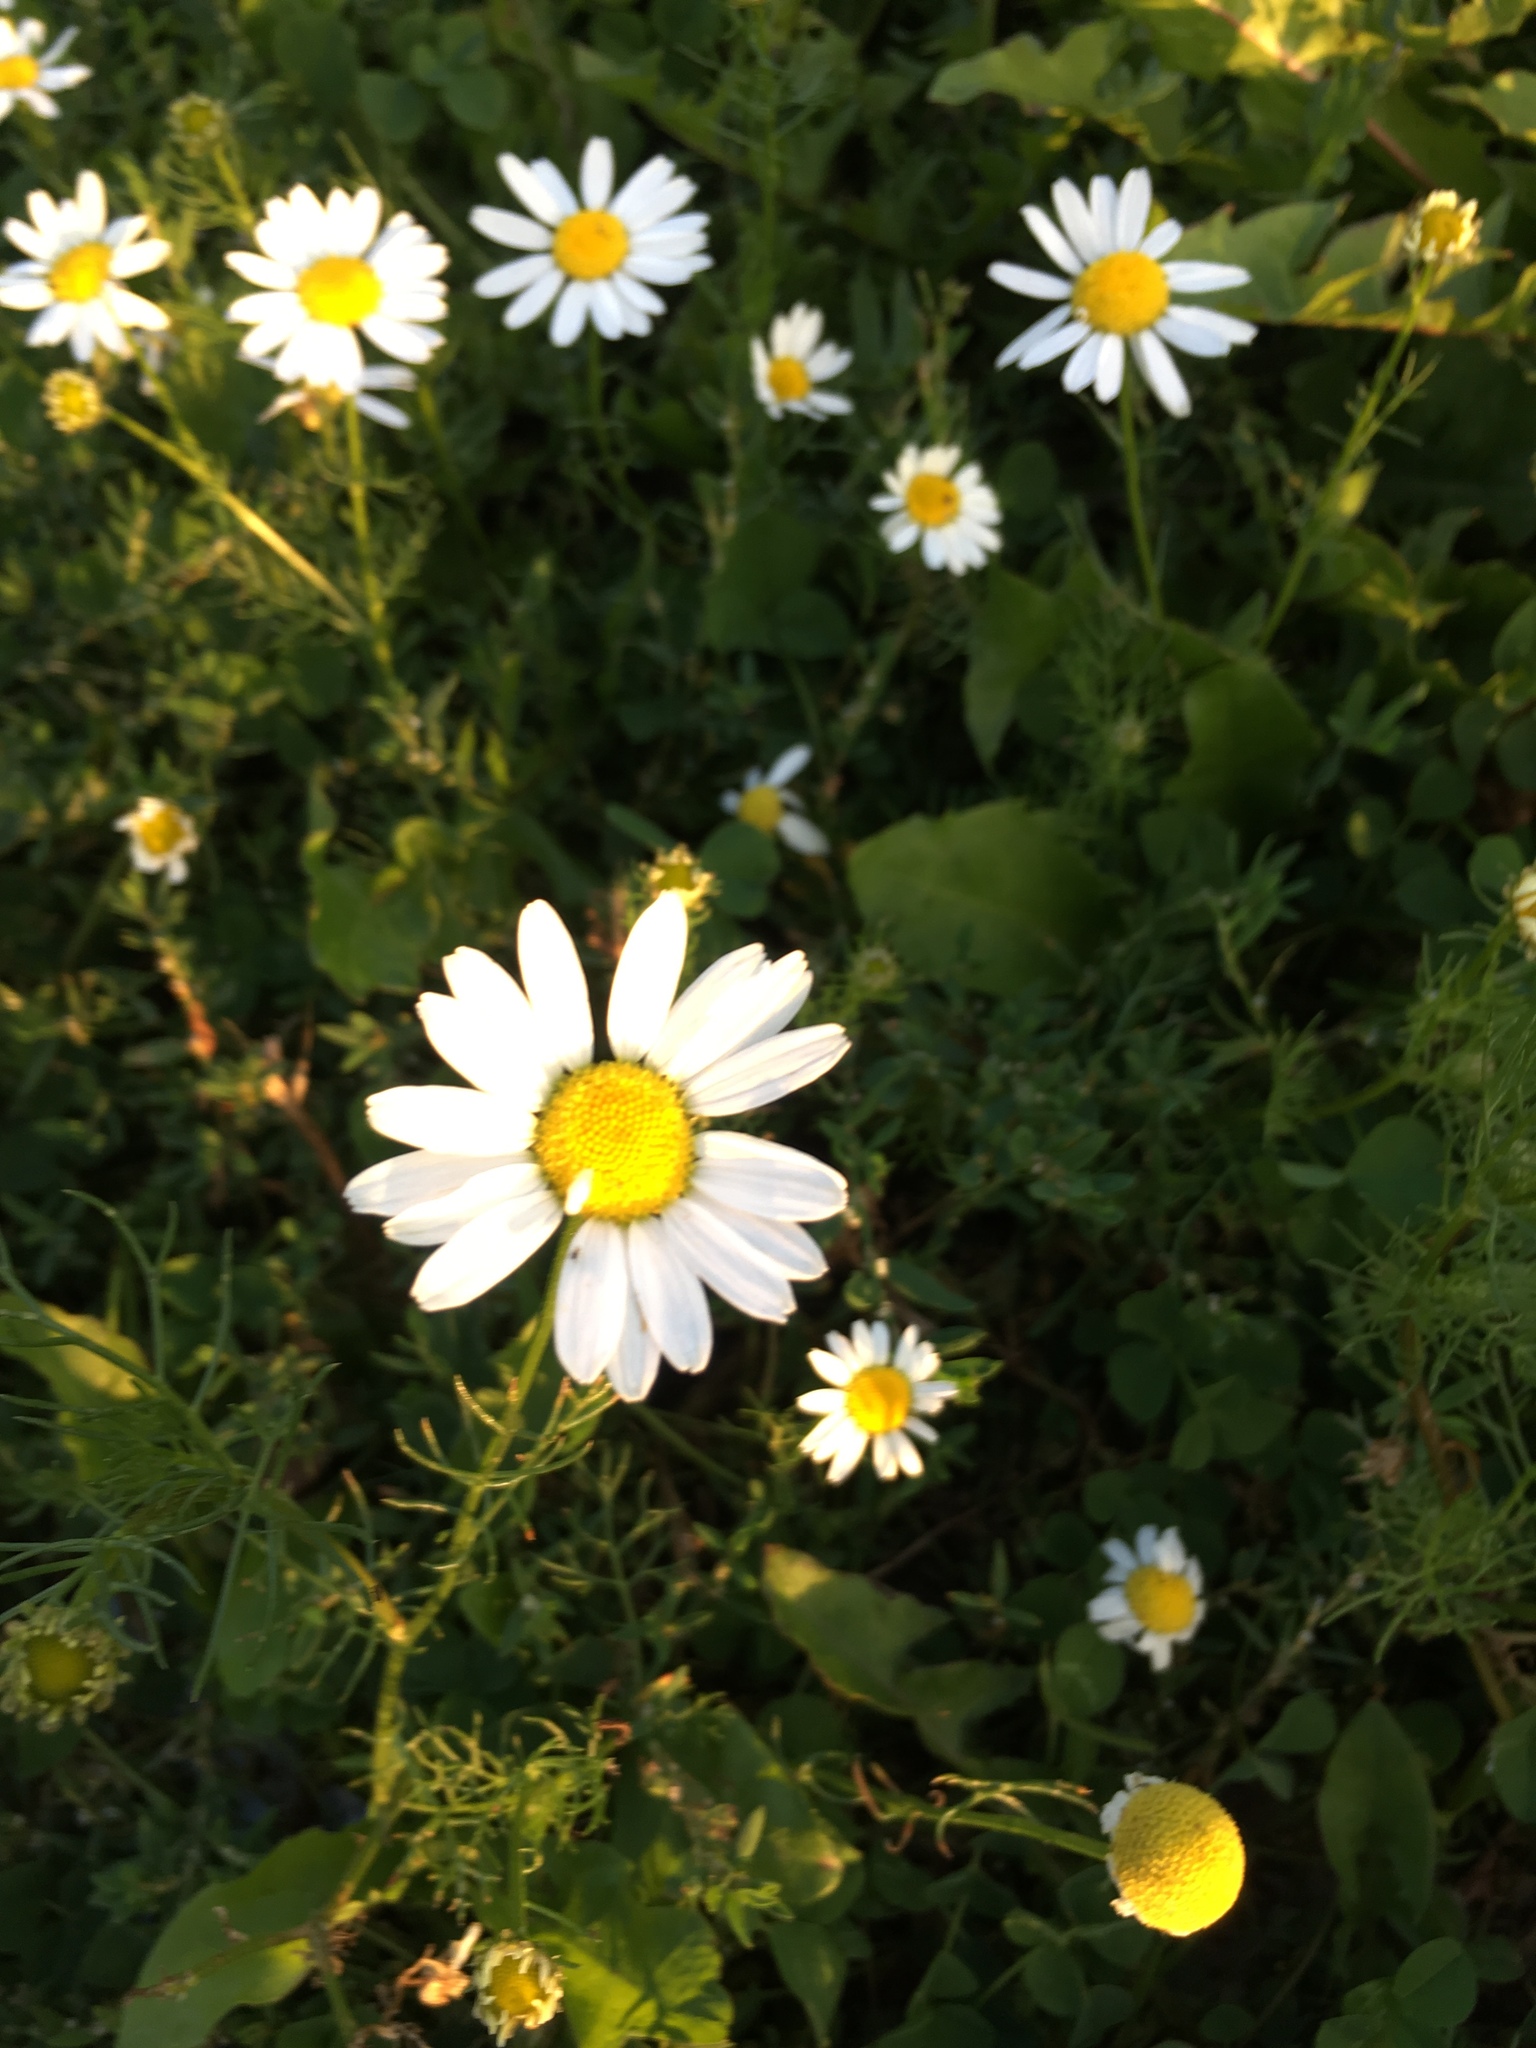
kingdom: Plantae
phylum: Tracheophyta
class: Magnoliopsida
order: Asterales
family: Asteraceae
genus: Tripleurospermum
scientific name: Tripleurospermum inodorum
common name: Scentless mayweed
